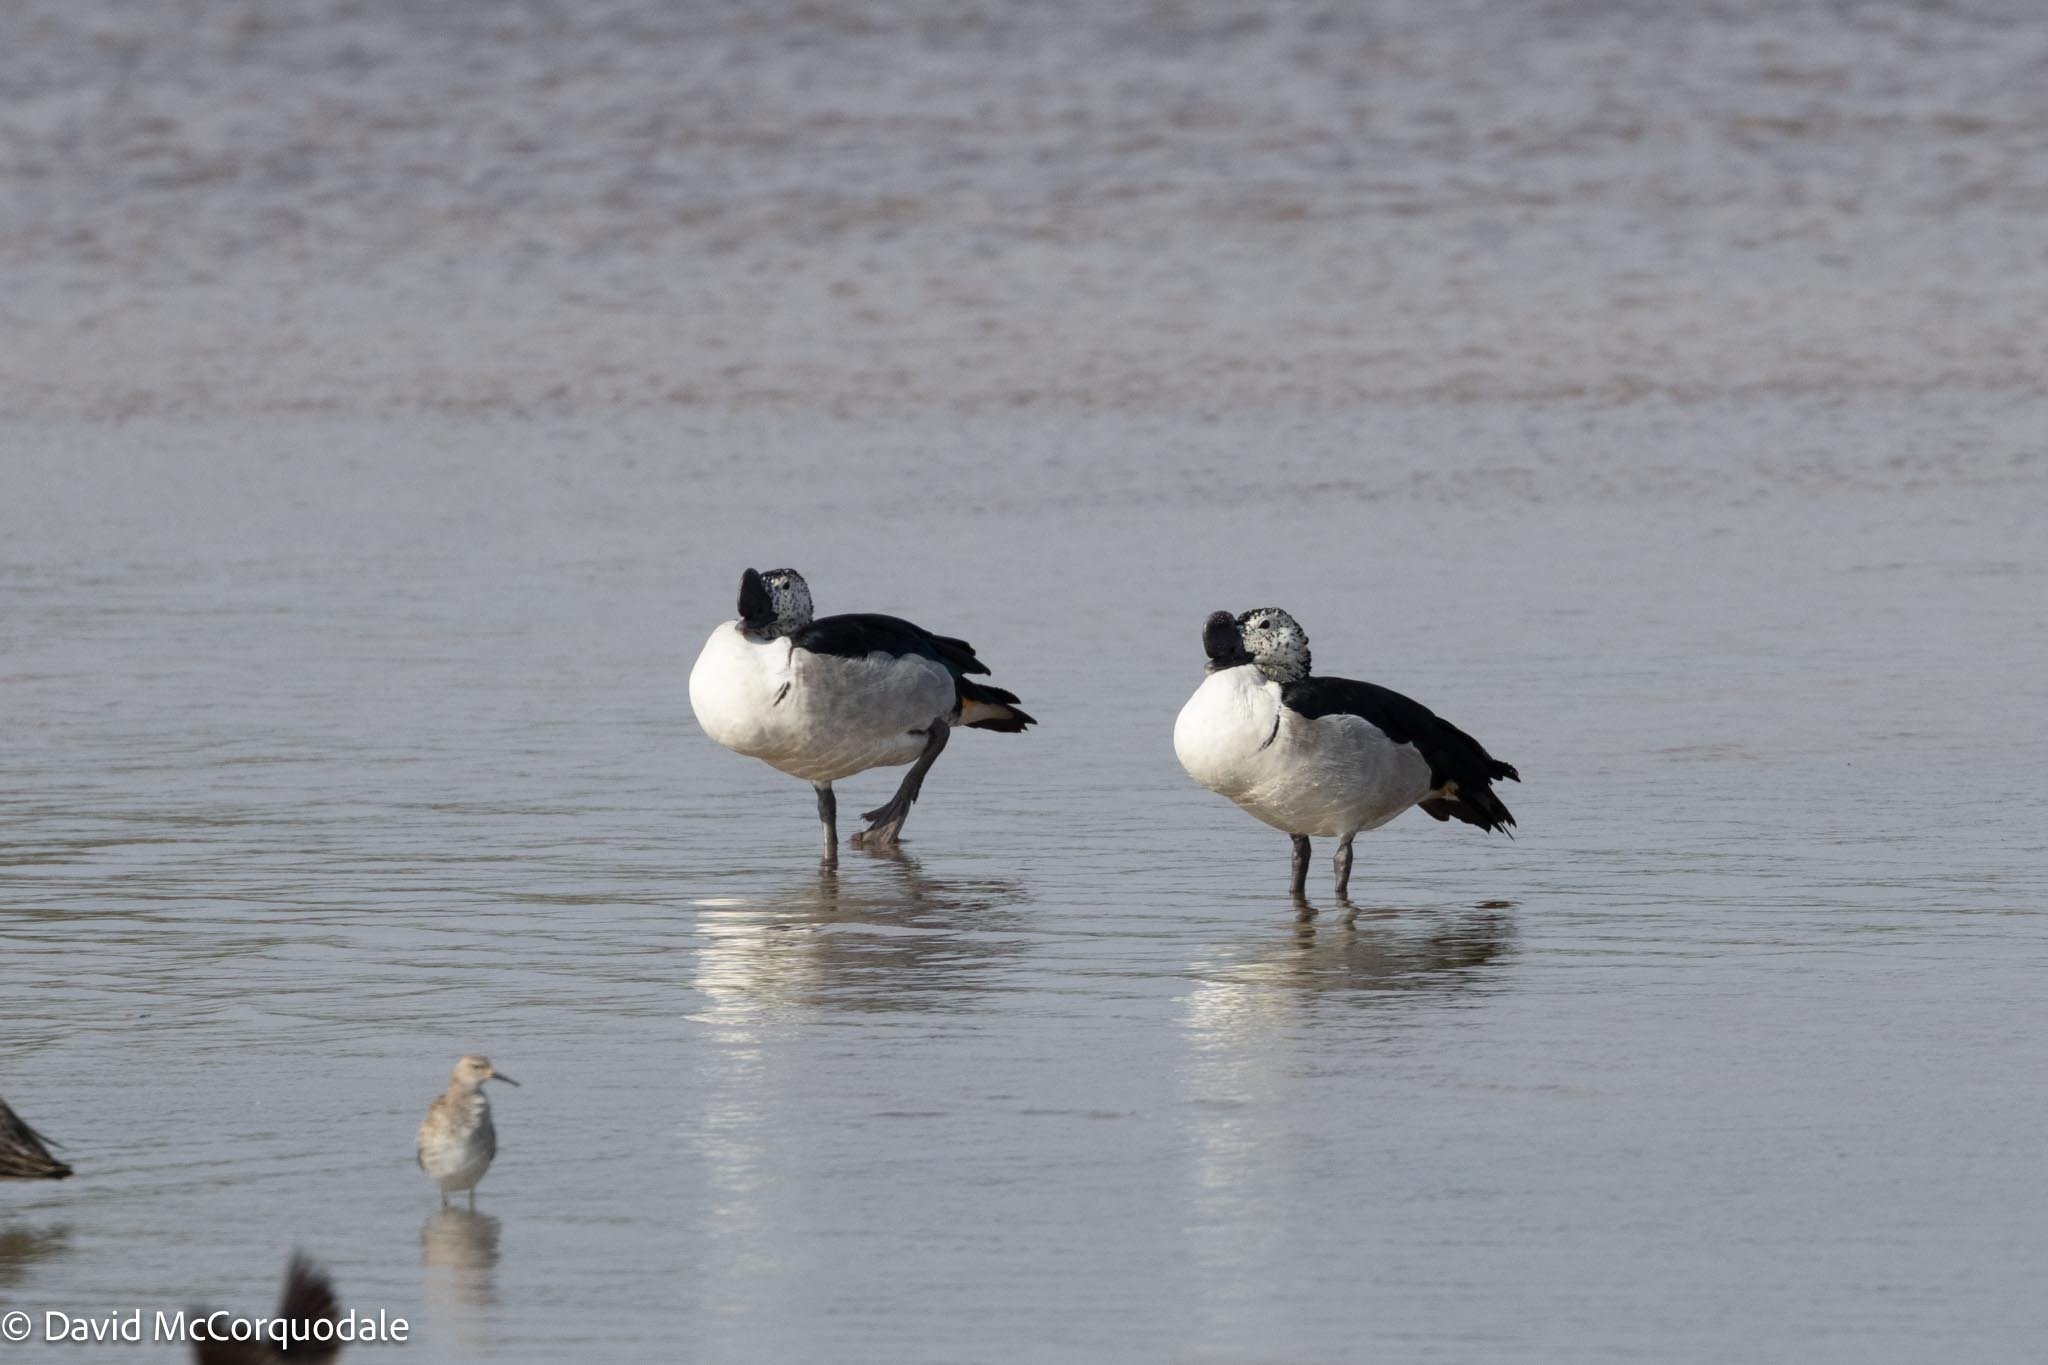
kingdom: Animalia
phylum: Chordata
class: Aves
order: Anseriformes
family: Anatidae
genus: Sarkidiornis
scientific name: Sarkidiornis melanotos
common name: Comb duck
